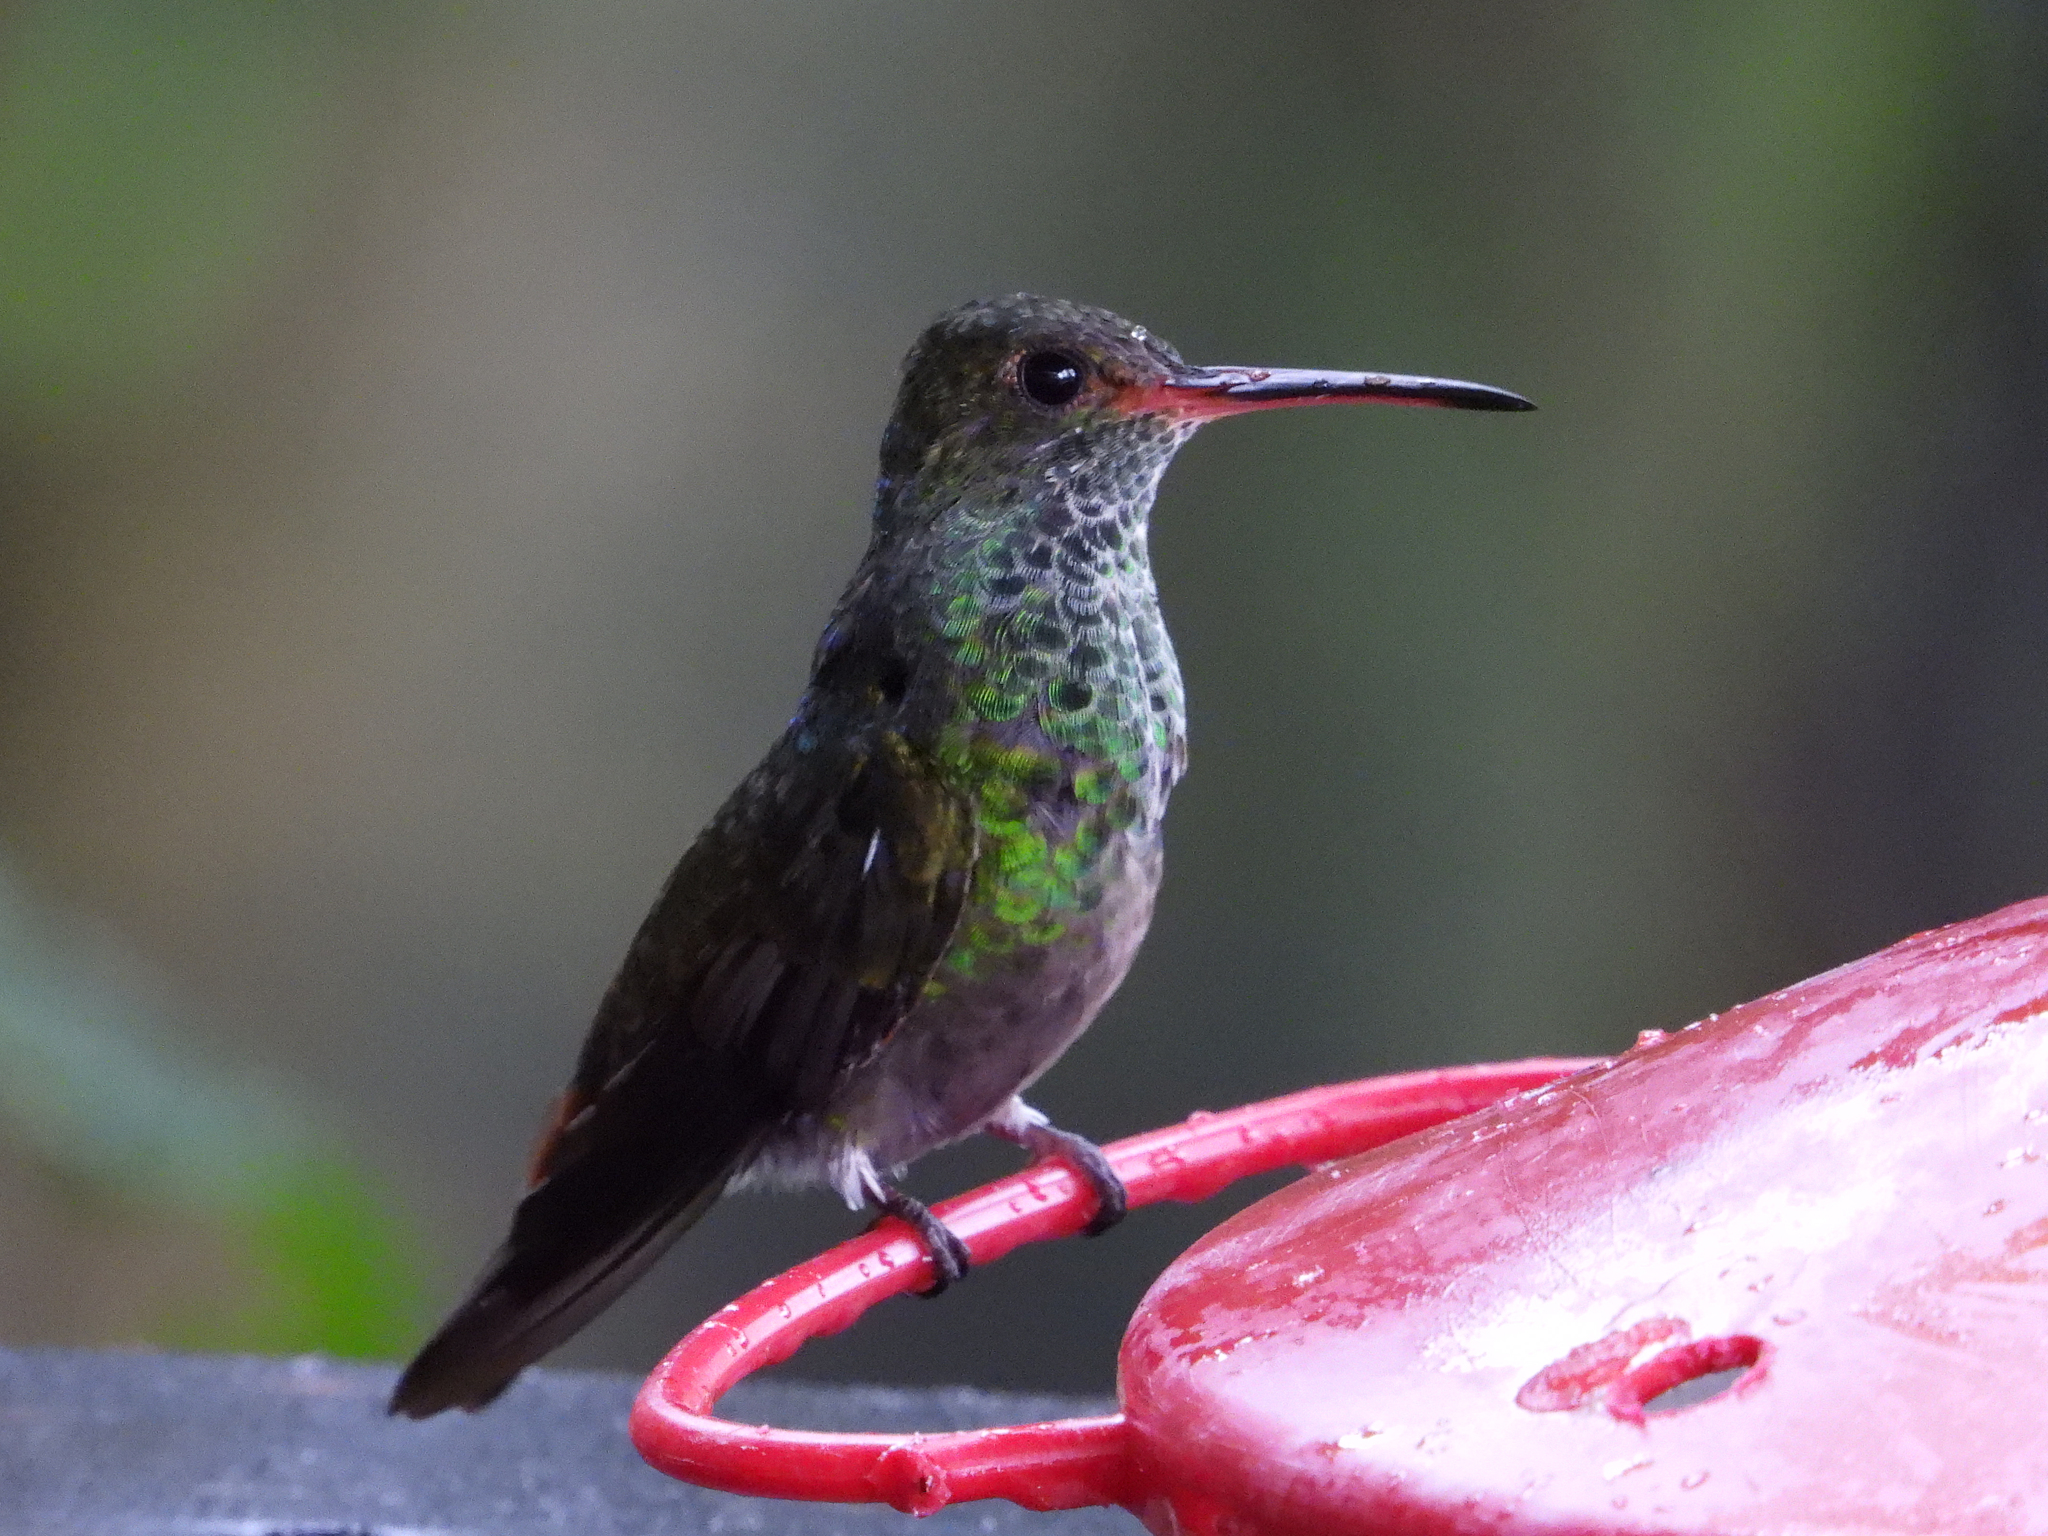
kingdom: Animalia
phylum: Chordata
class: Aves
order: Apodiformes
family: Trochilidae
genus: Amazilia
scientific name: Amazilia tzacatl
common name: Rufous-tailed hummingbird
